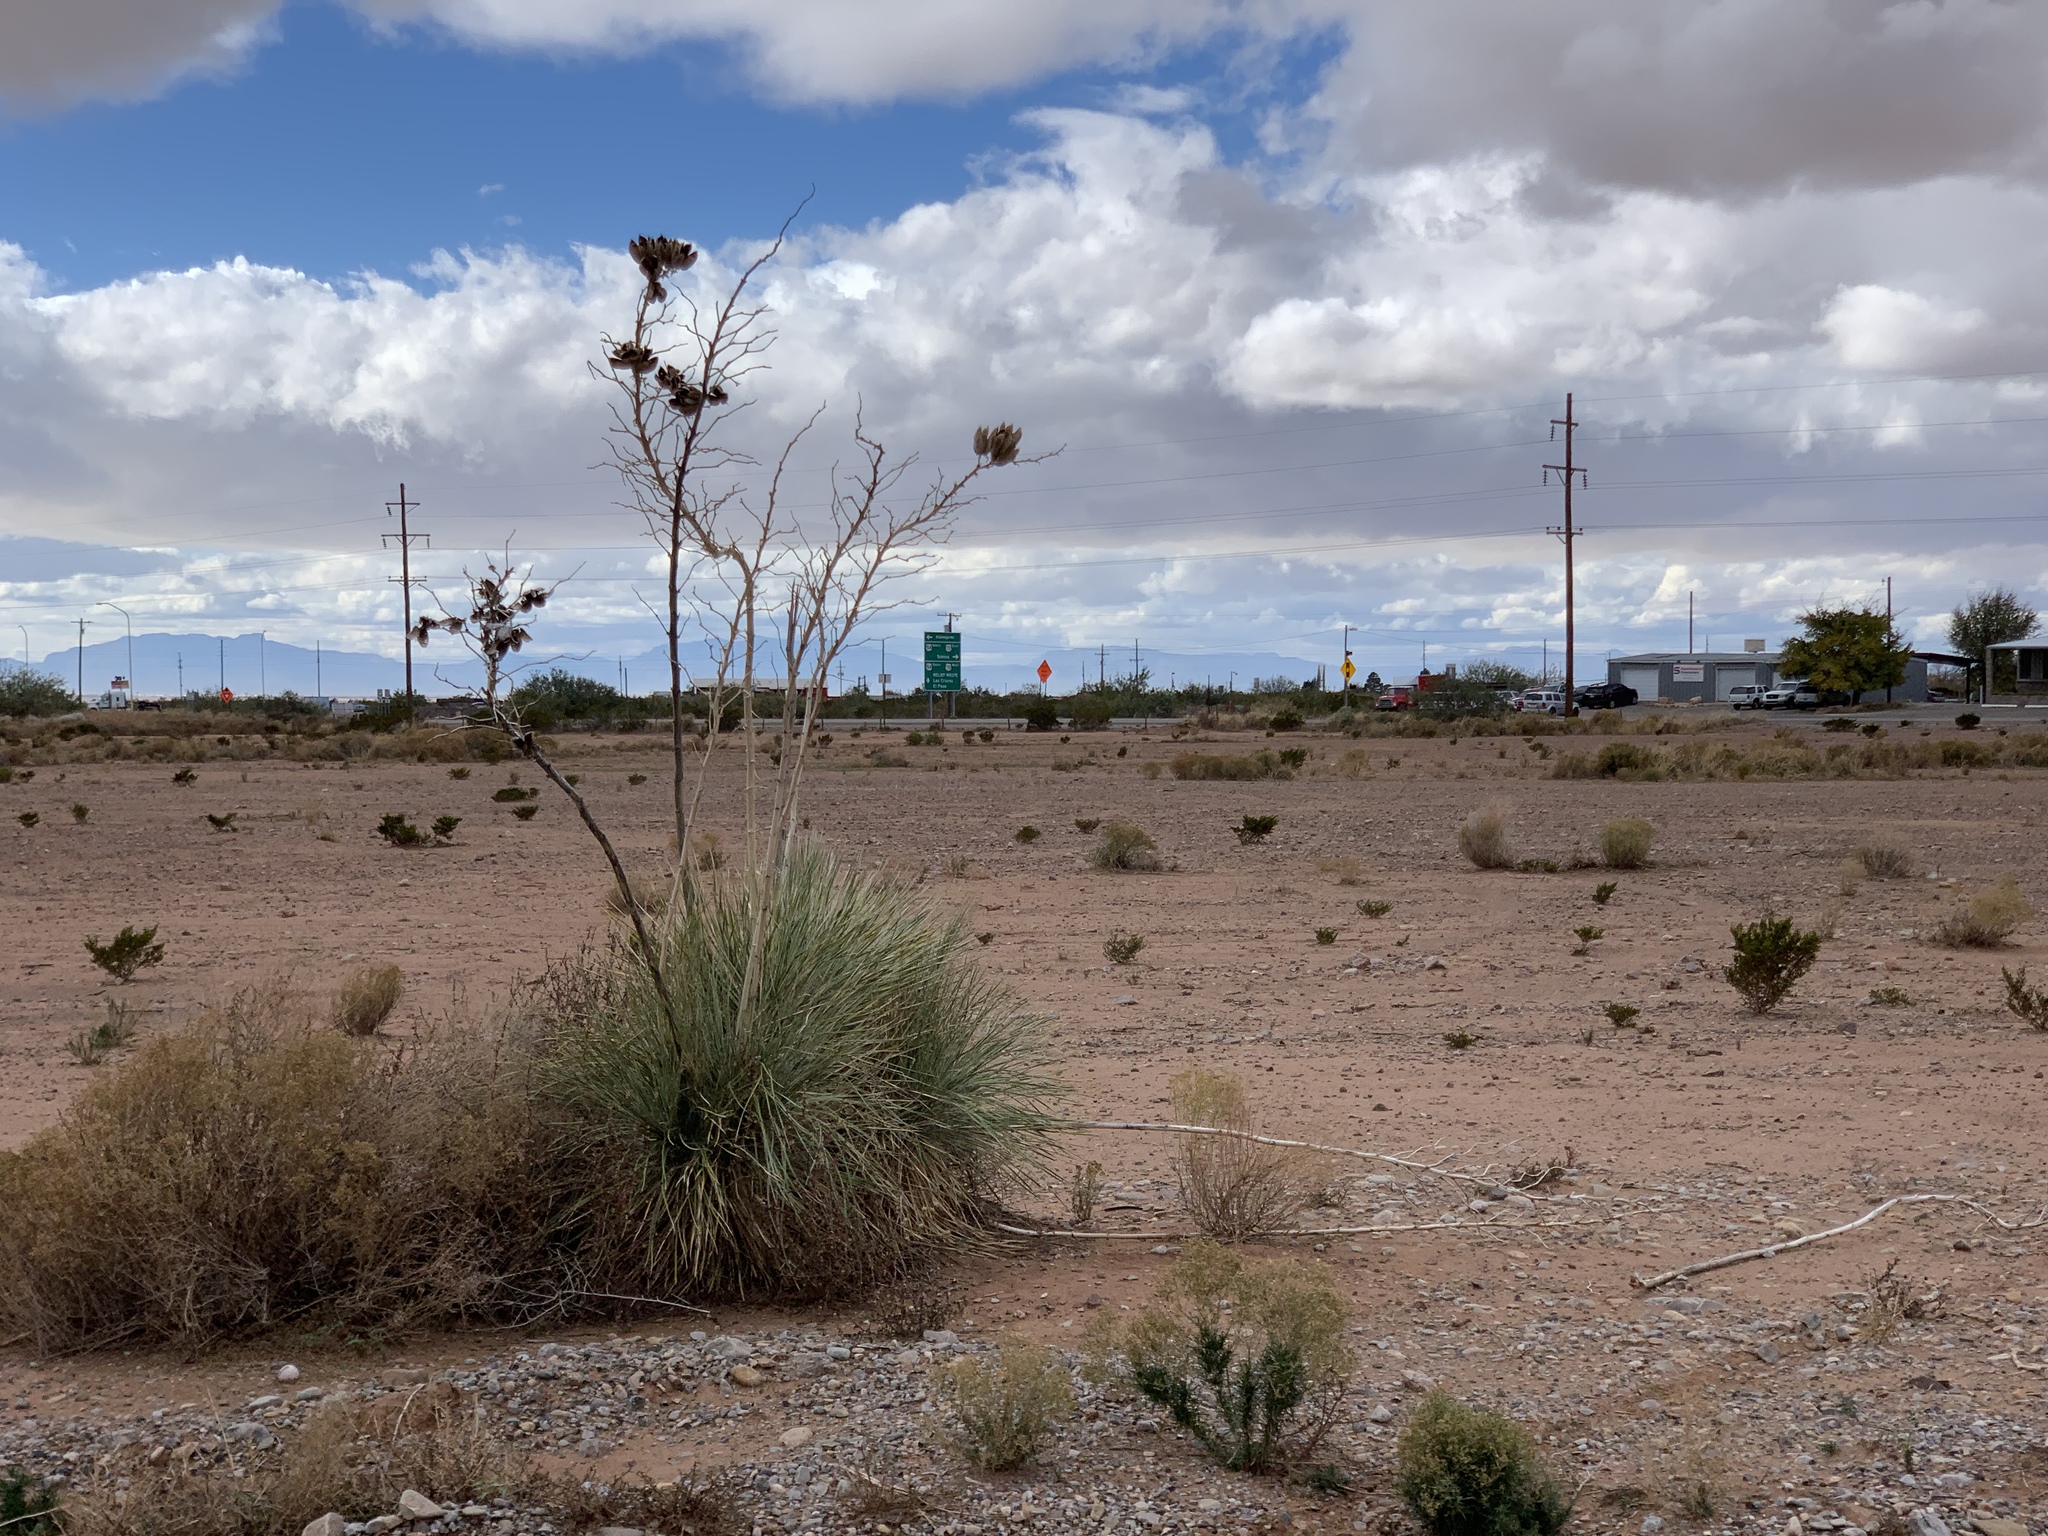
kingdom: Plantae
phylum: Tracheophyta
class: Liliopsida
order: Asparagales
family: Asparagaceae
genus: Yucca
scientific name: Yucca elata
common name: Palmella
